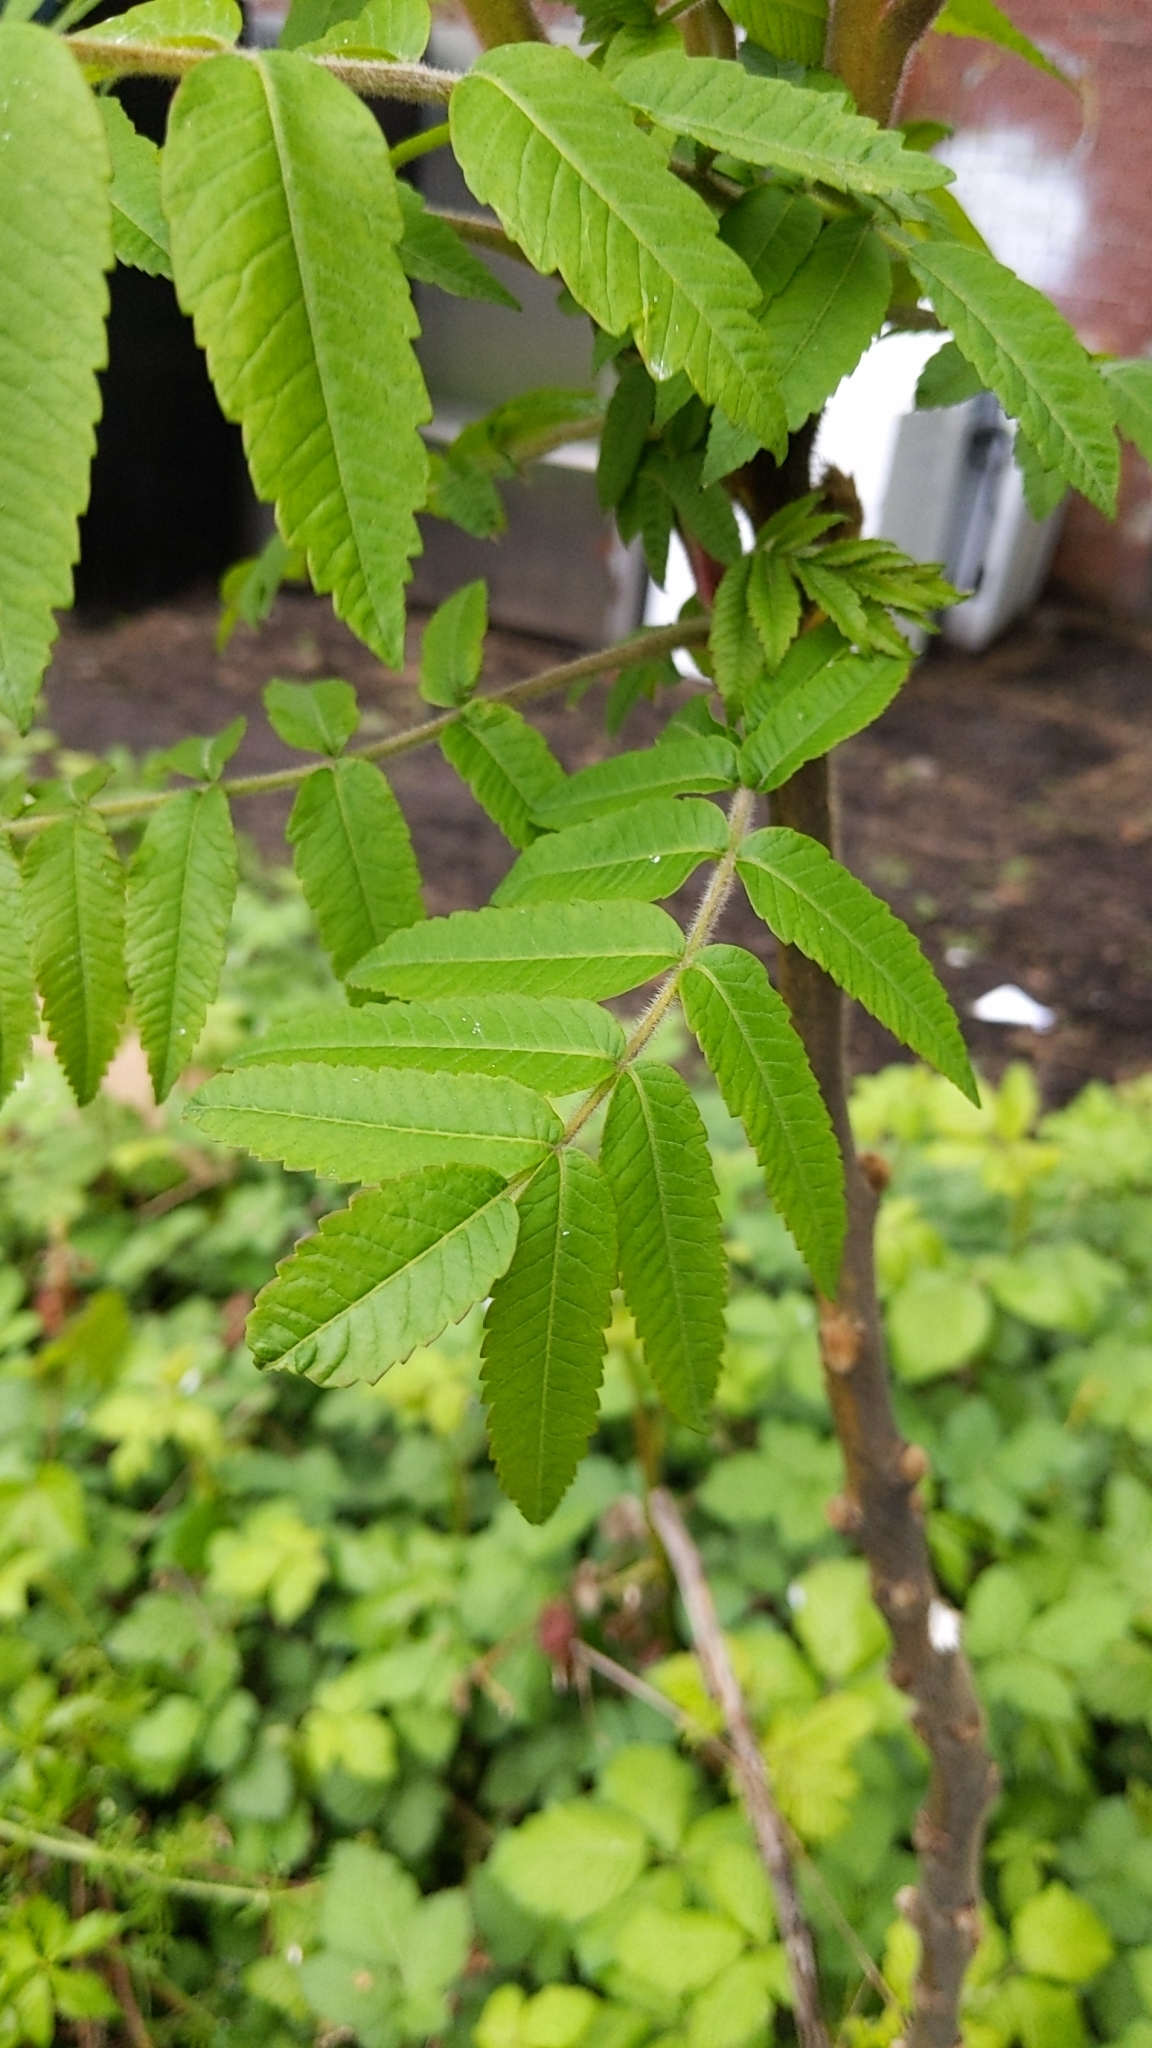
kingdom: Plantae
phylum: Tracheophyta
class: Magnoliopsida
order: Sapindales
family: Anacardiaceae
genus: Rhus
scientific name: Rhus typhina
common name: Staghorn sumac
